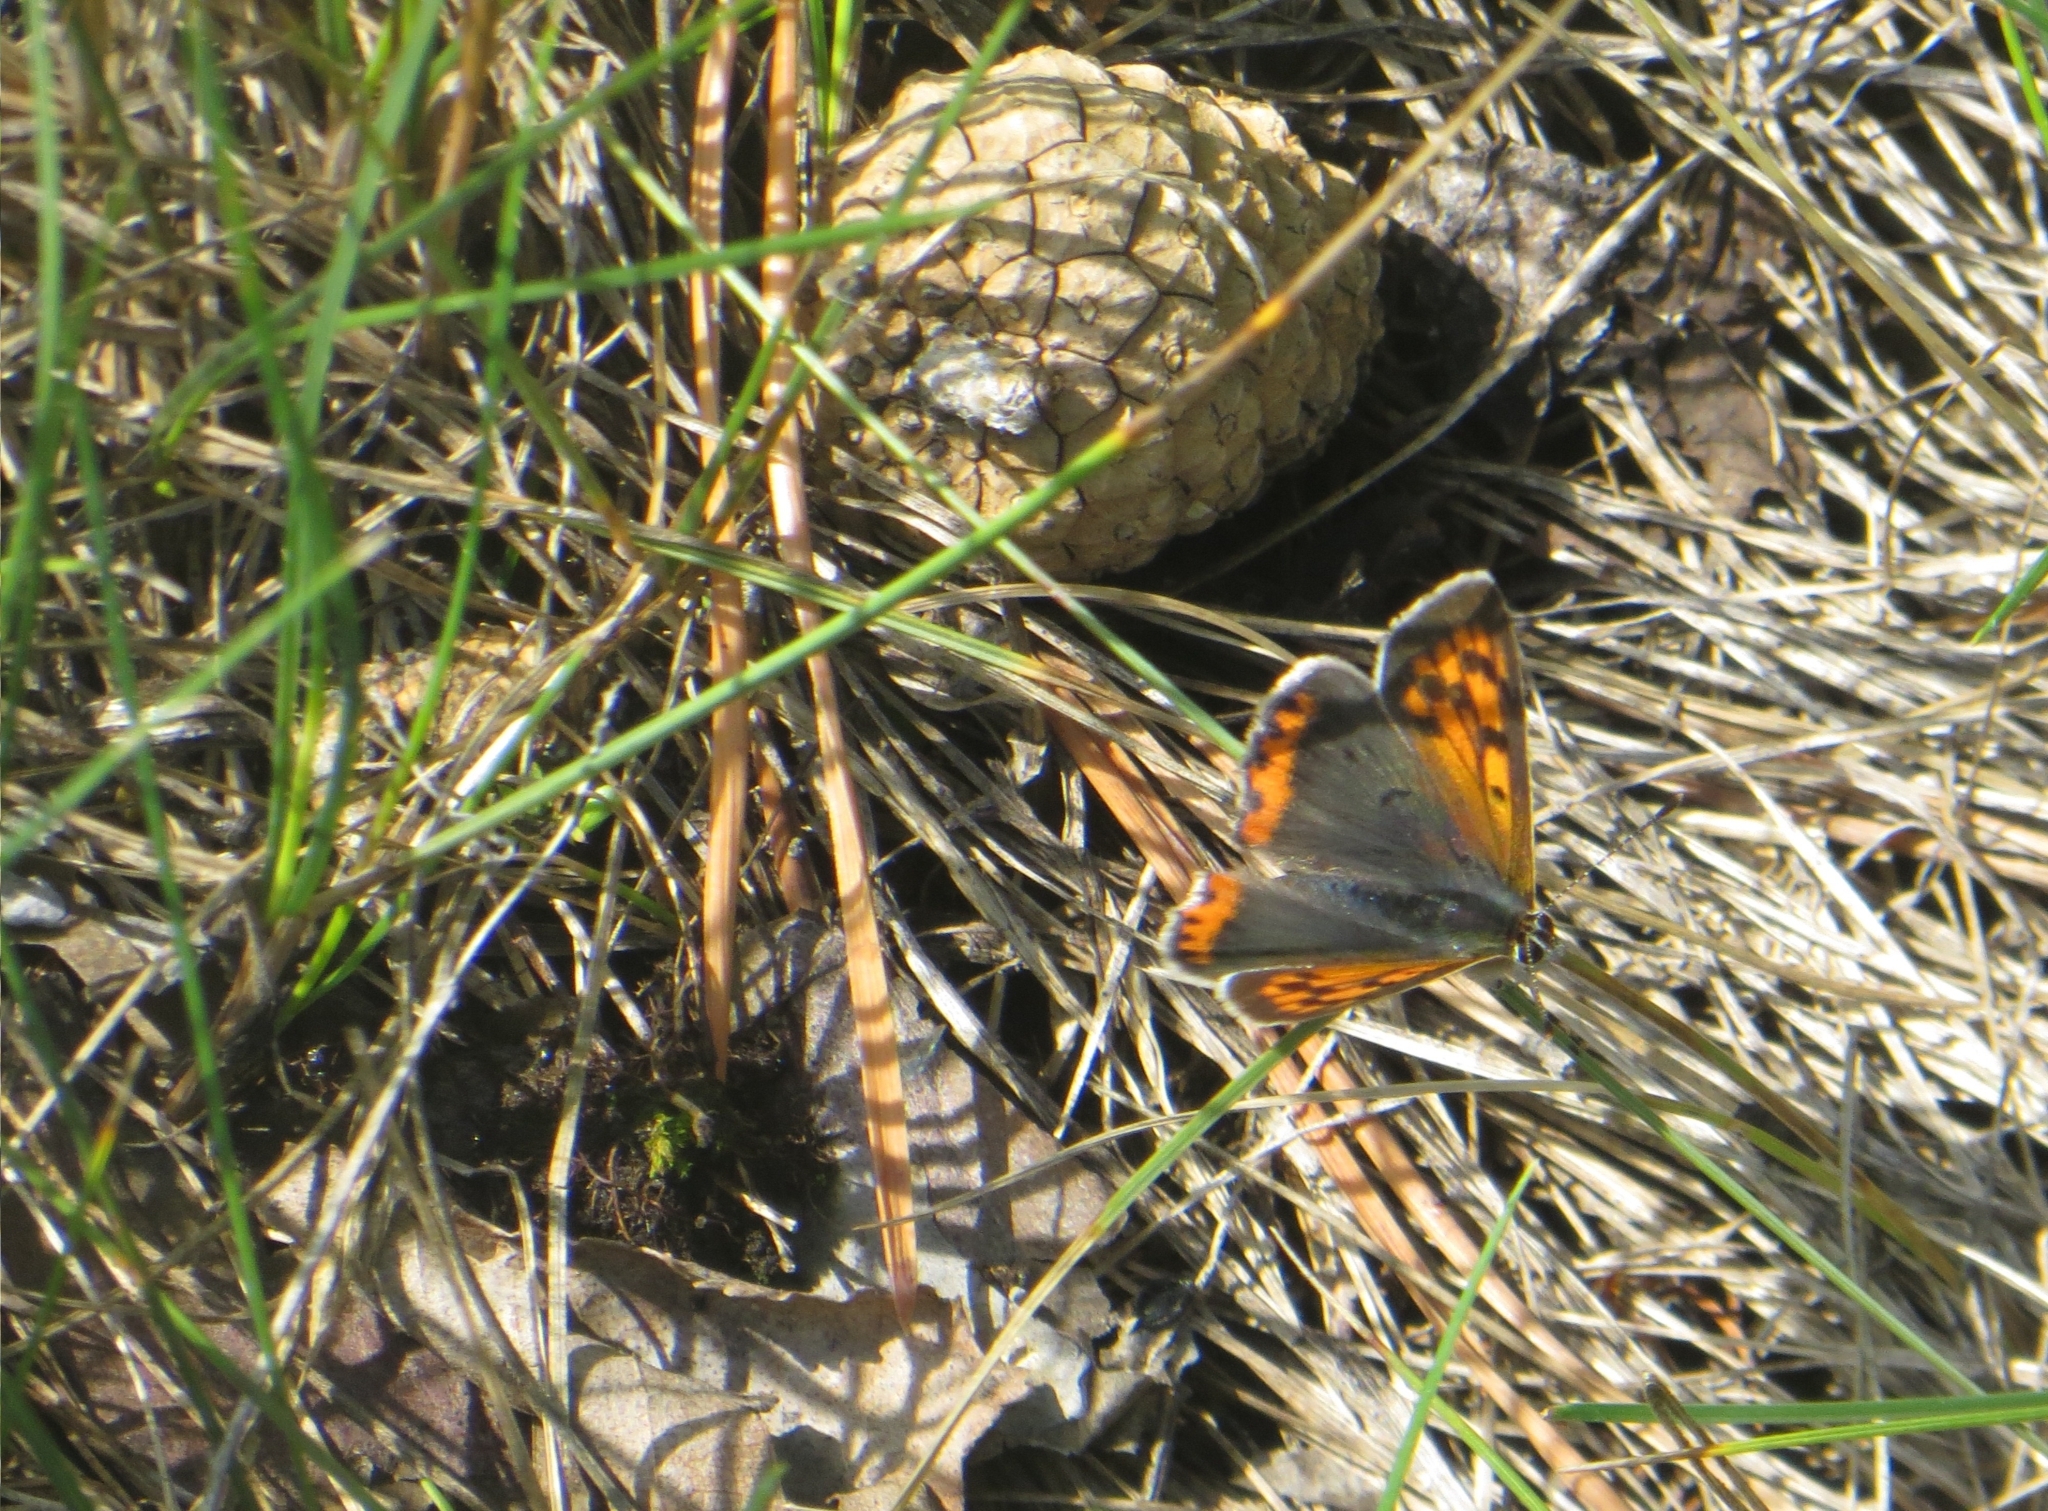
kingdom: Animalia
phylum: Arthropoda
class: Insecta
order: Lepidoptera
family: Lycaenidae
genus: Lycaena
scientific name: Lycaena phlaeas
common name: Small copper
